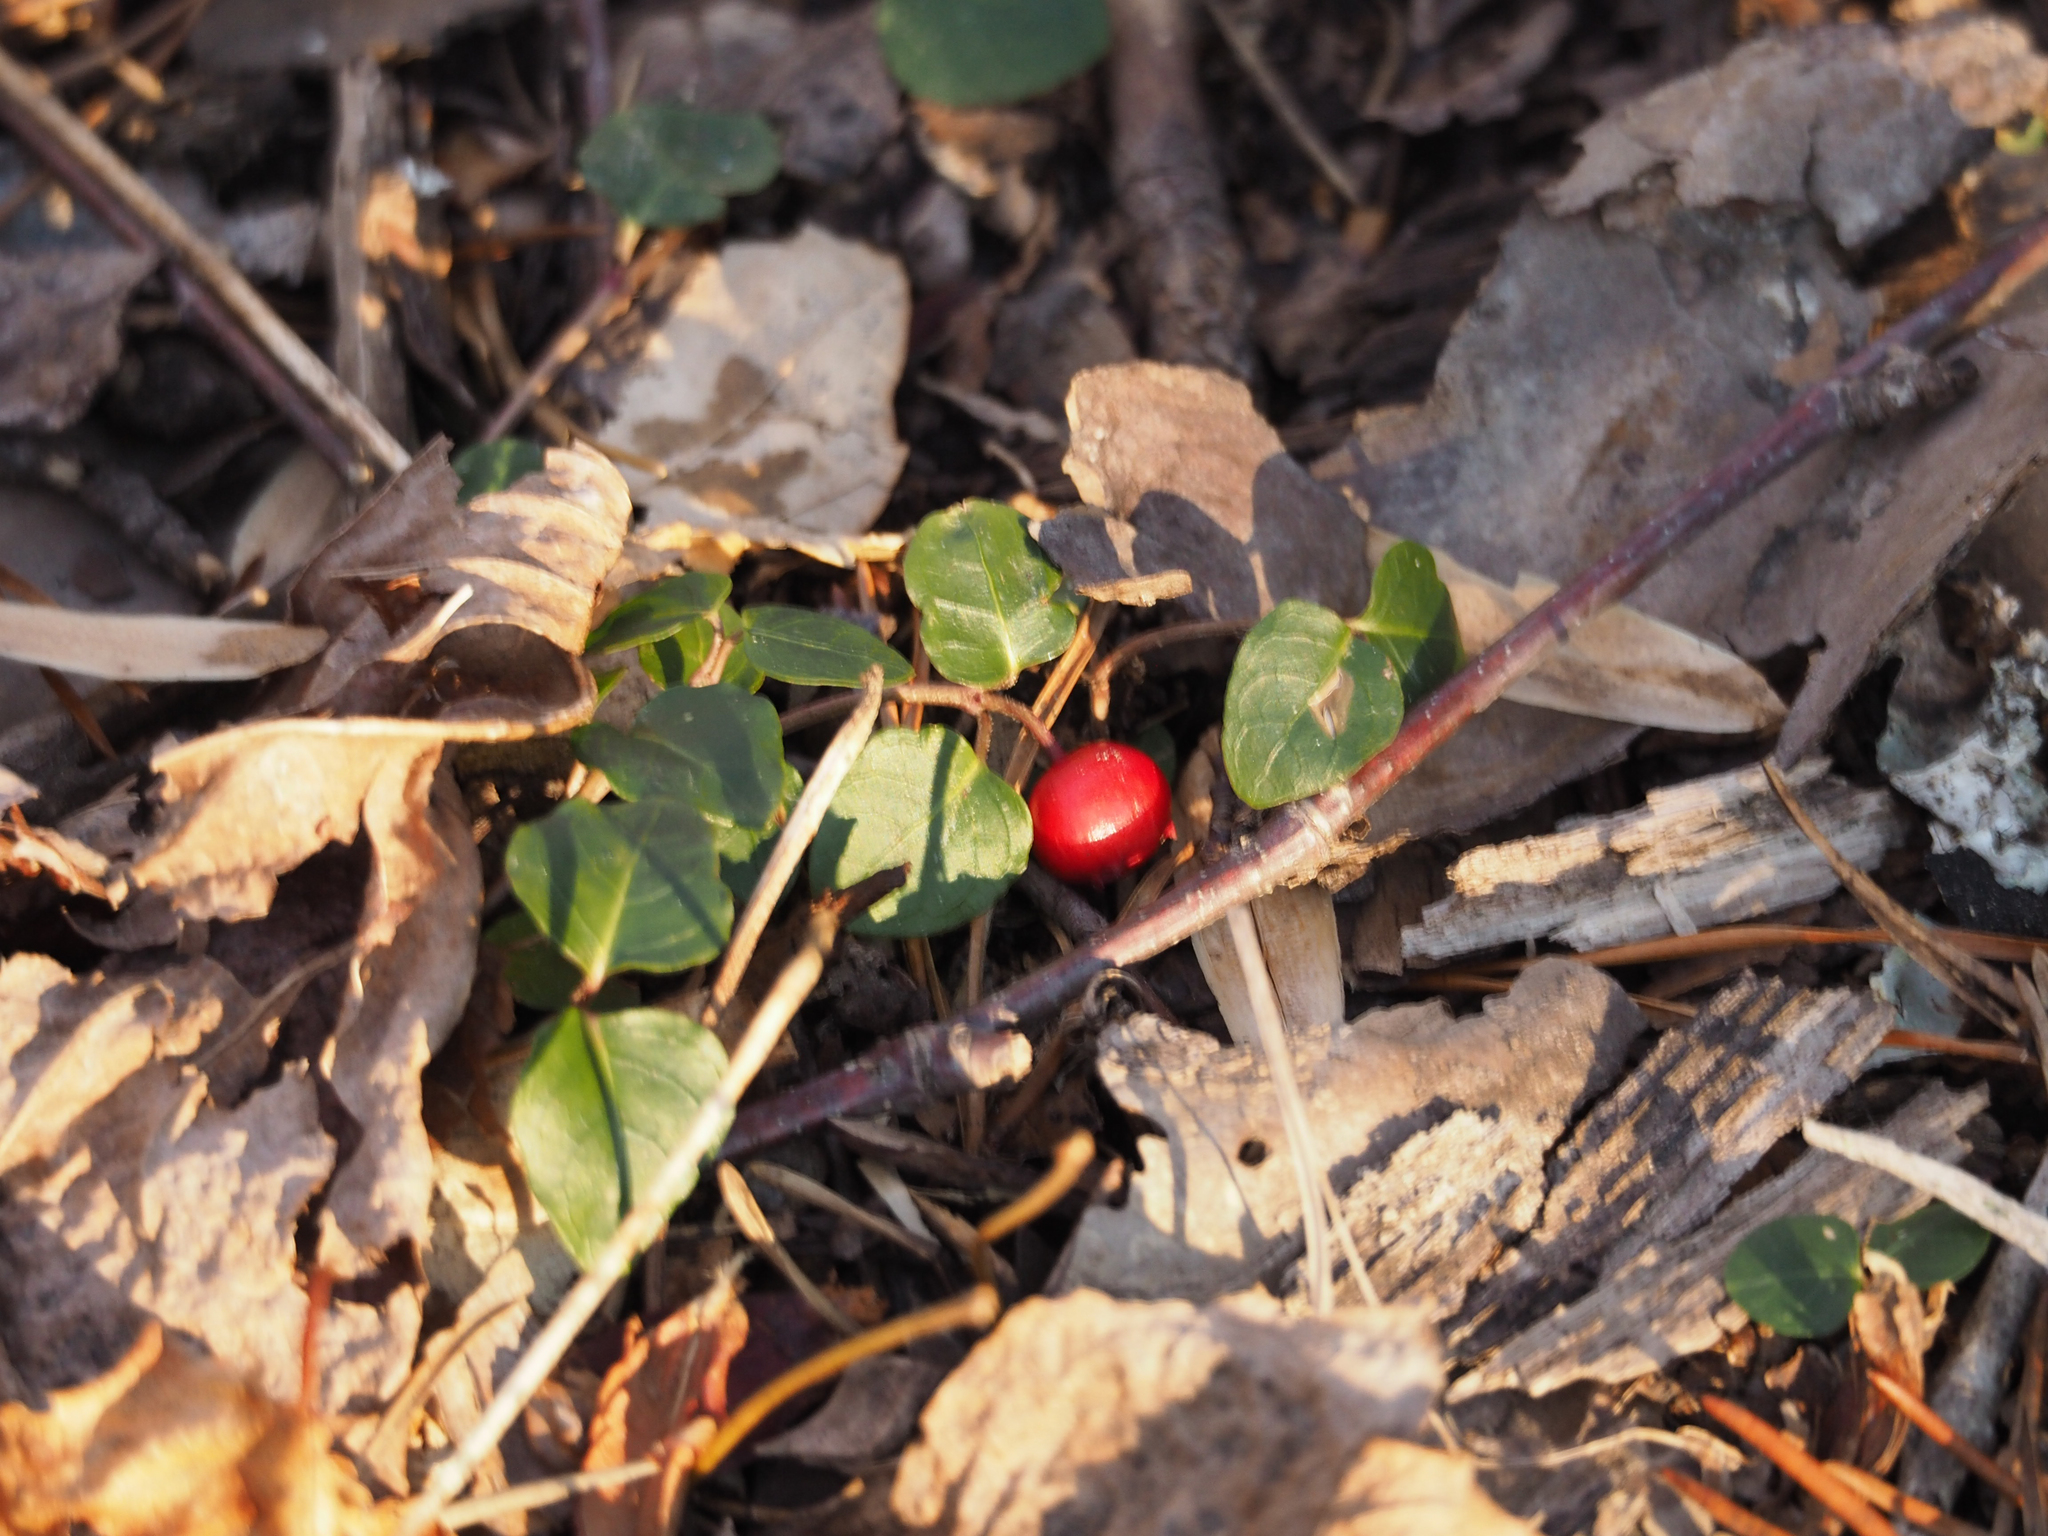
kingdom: Plantae
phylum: Tracheophyta
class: Magnoliopsida
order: Gentianales
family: Rubiaceae
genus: Mitchella
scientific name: Mitchella repens
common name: Partridge-berry
